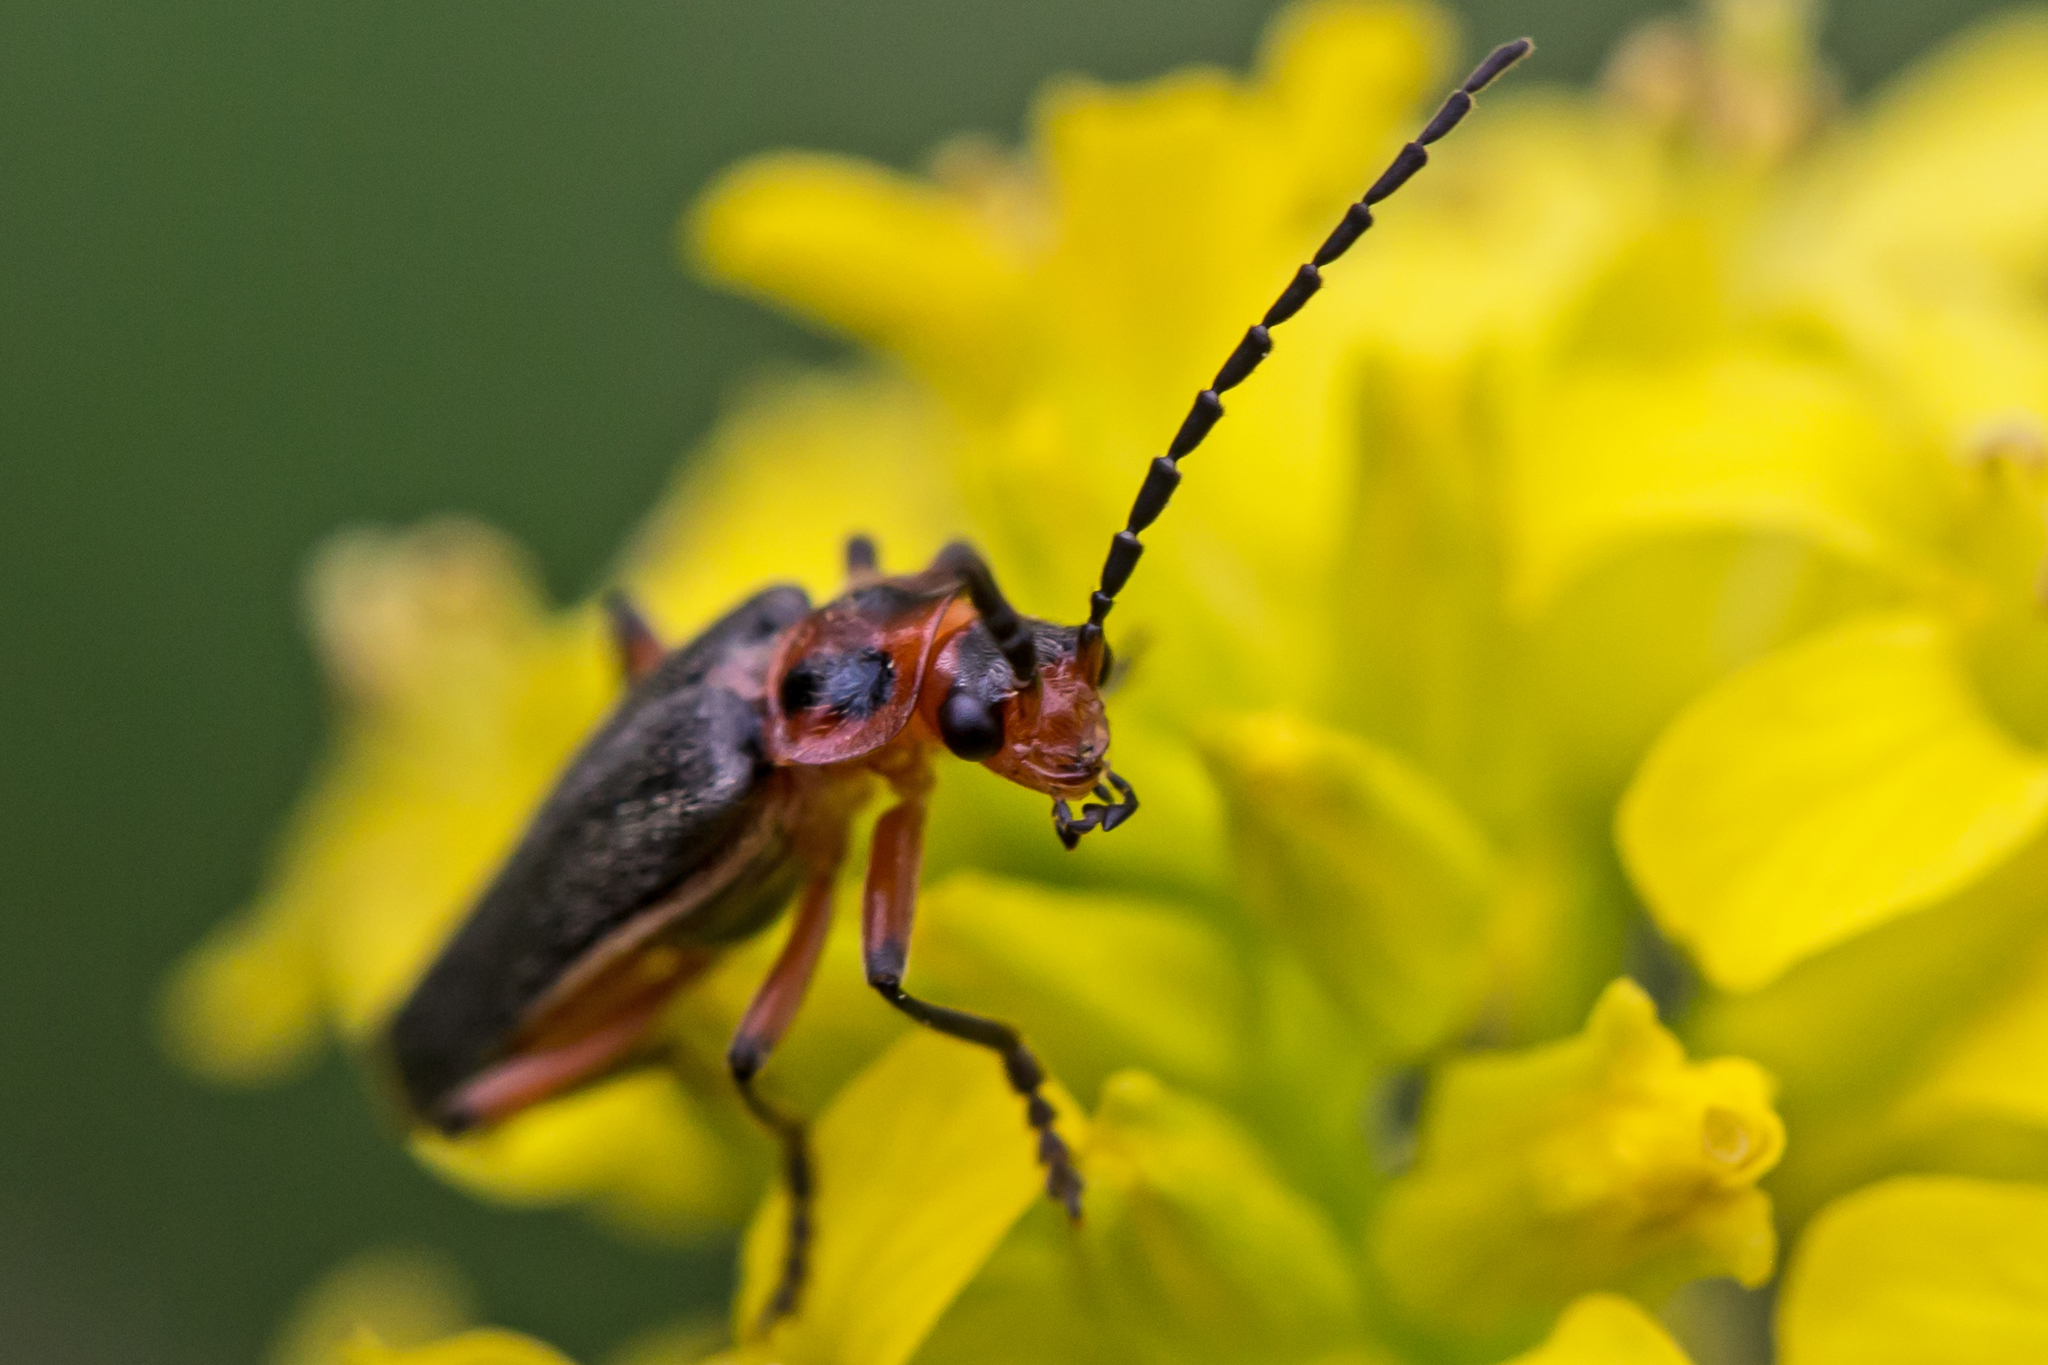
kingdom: Animalia
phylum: Arthropoda
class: Insecta
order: Coleoptera
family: Cantharidae
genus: Atalantycha
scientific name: Atalantycha bilineata
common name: Two-lined leatherwing
